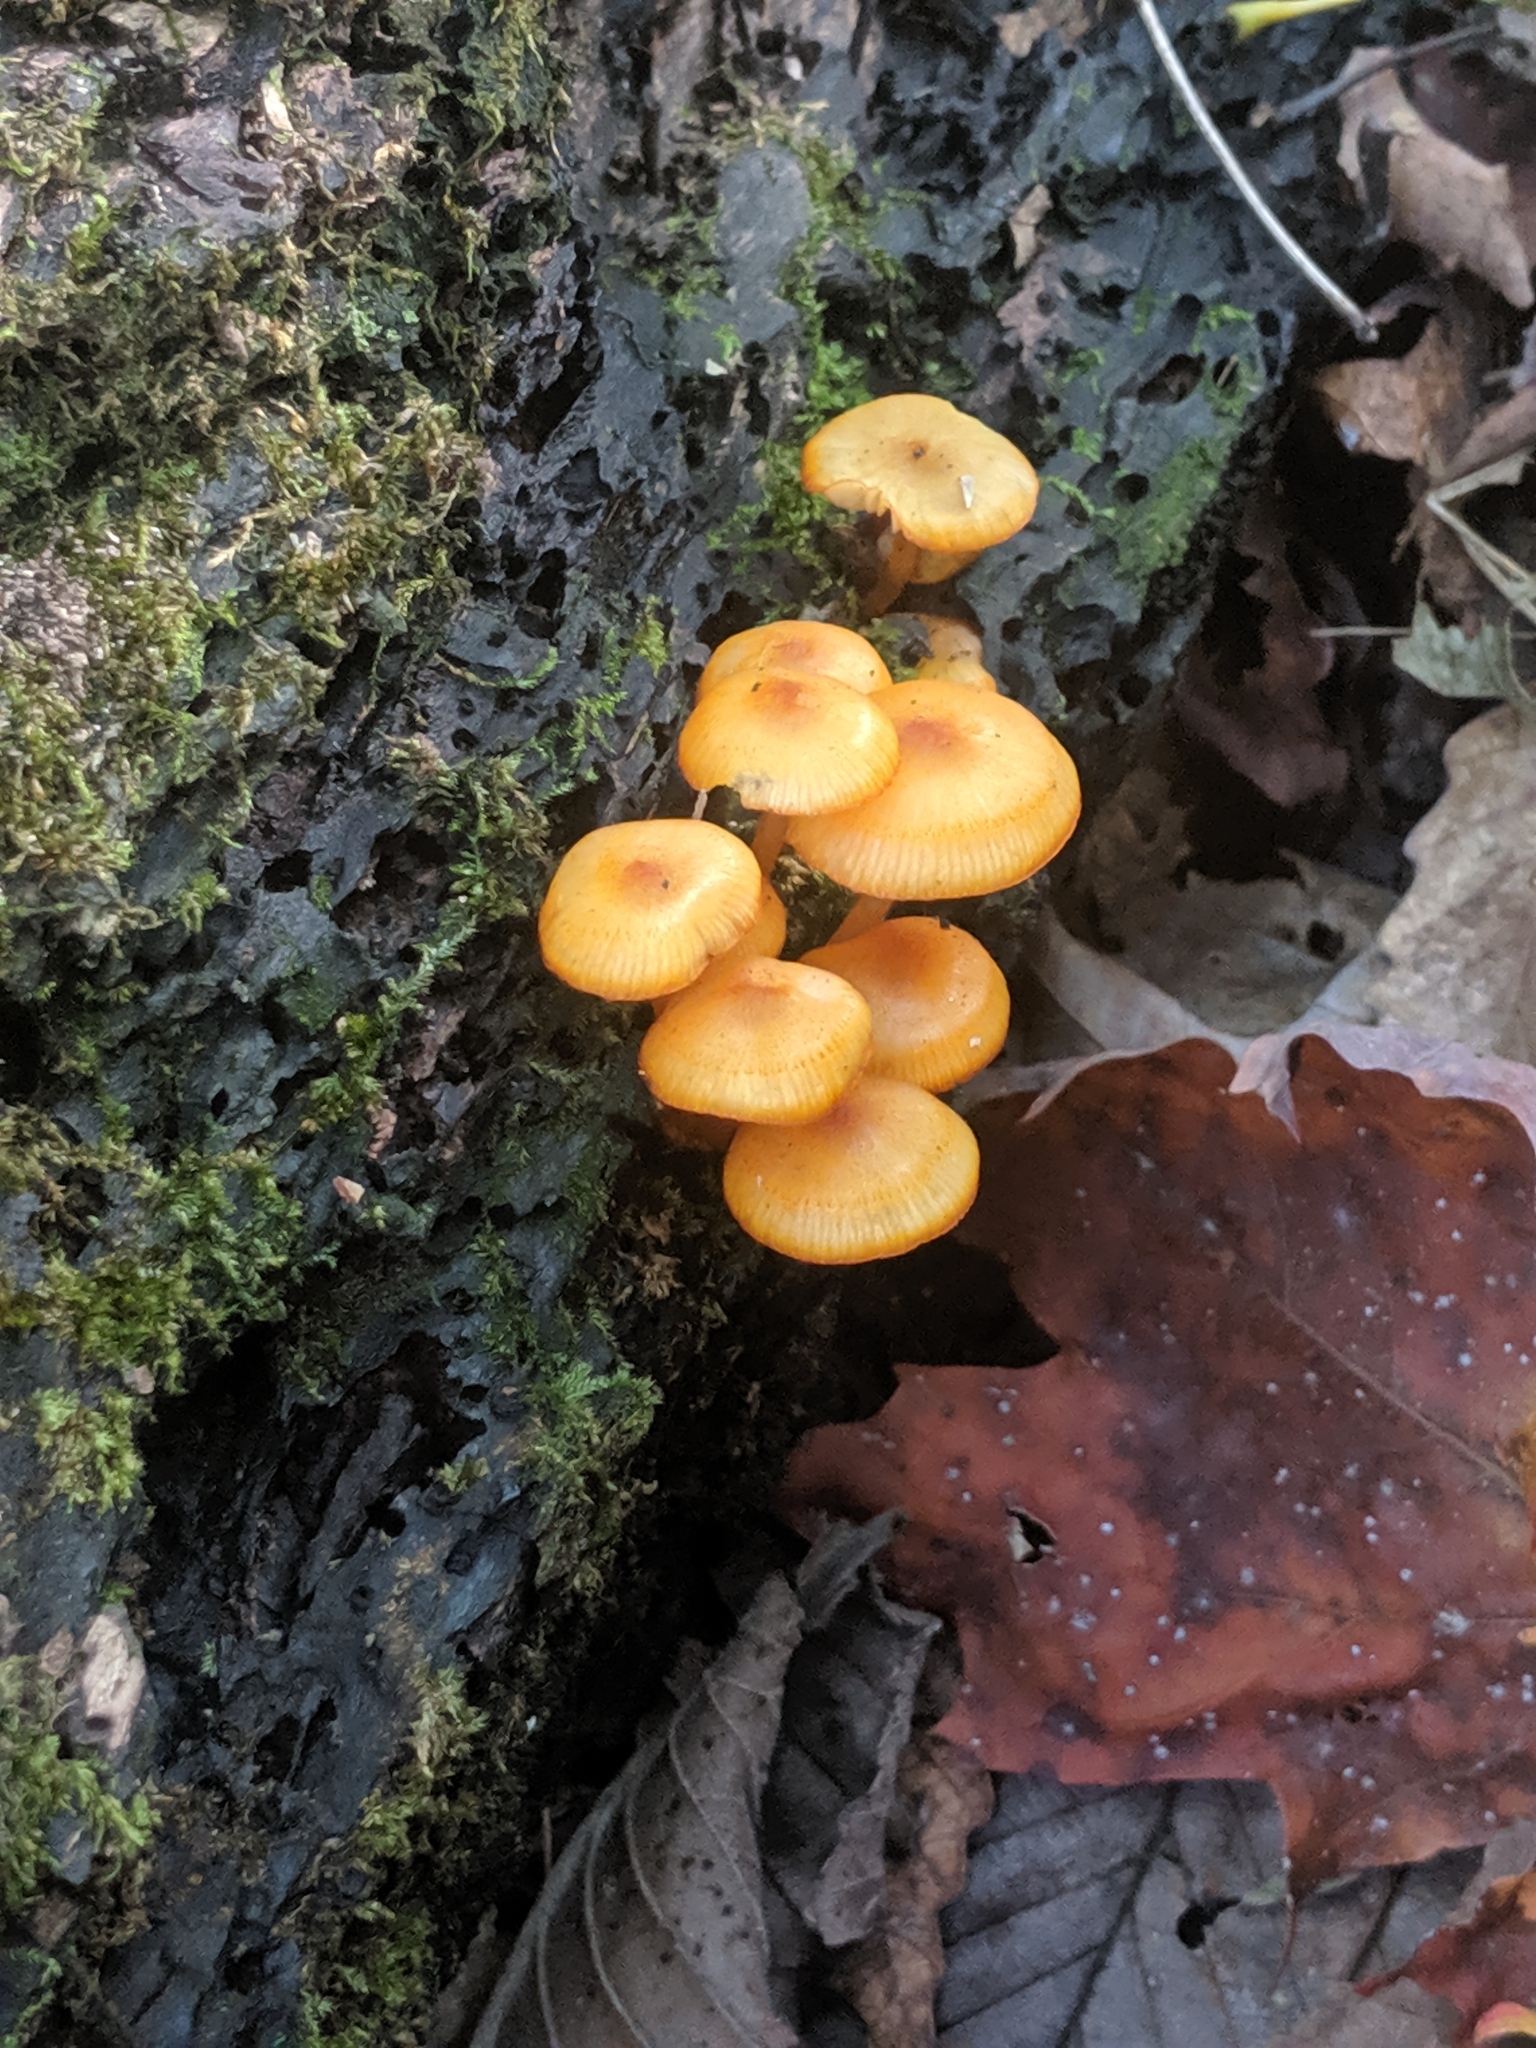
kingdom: Fungi
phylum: Basidiomycota
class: Agaricomycetes
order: Agaricales
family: Mycenaceae
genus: Mycena
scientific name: Mycena leaiana
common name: Orange mycena
